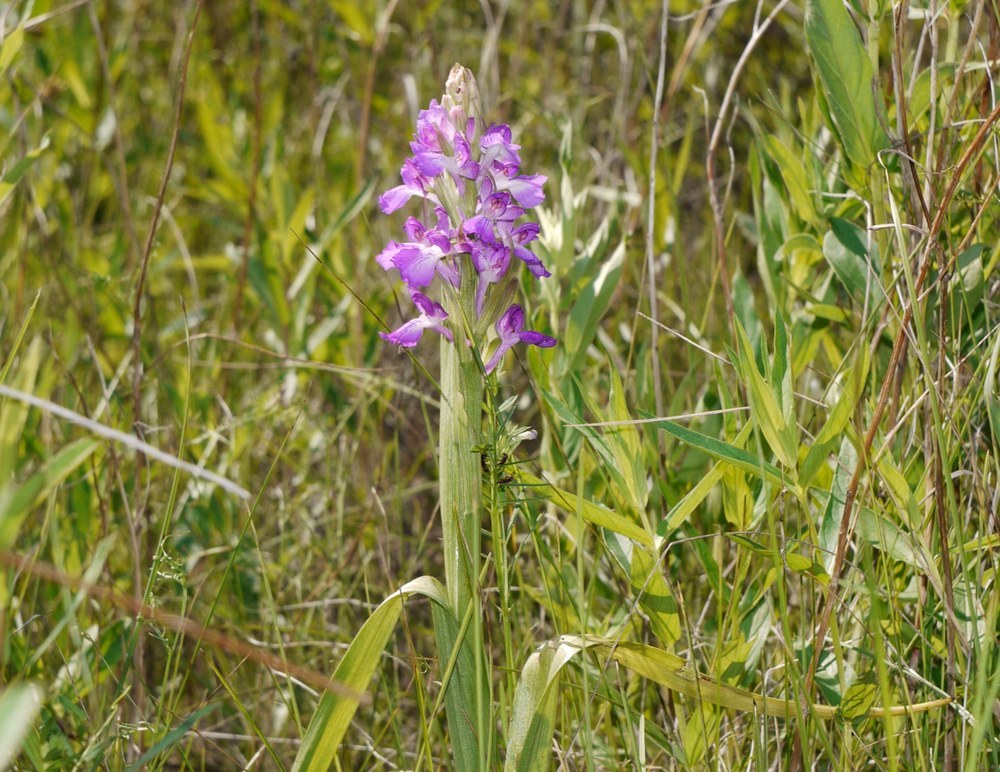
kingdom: Plantae
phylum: Tracheophyta
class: Liliopsida
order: Asparagales
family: Orchidaceae
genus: Anacamptis
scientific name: Anacamptis palustris
